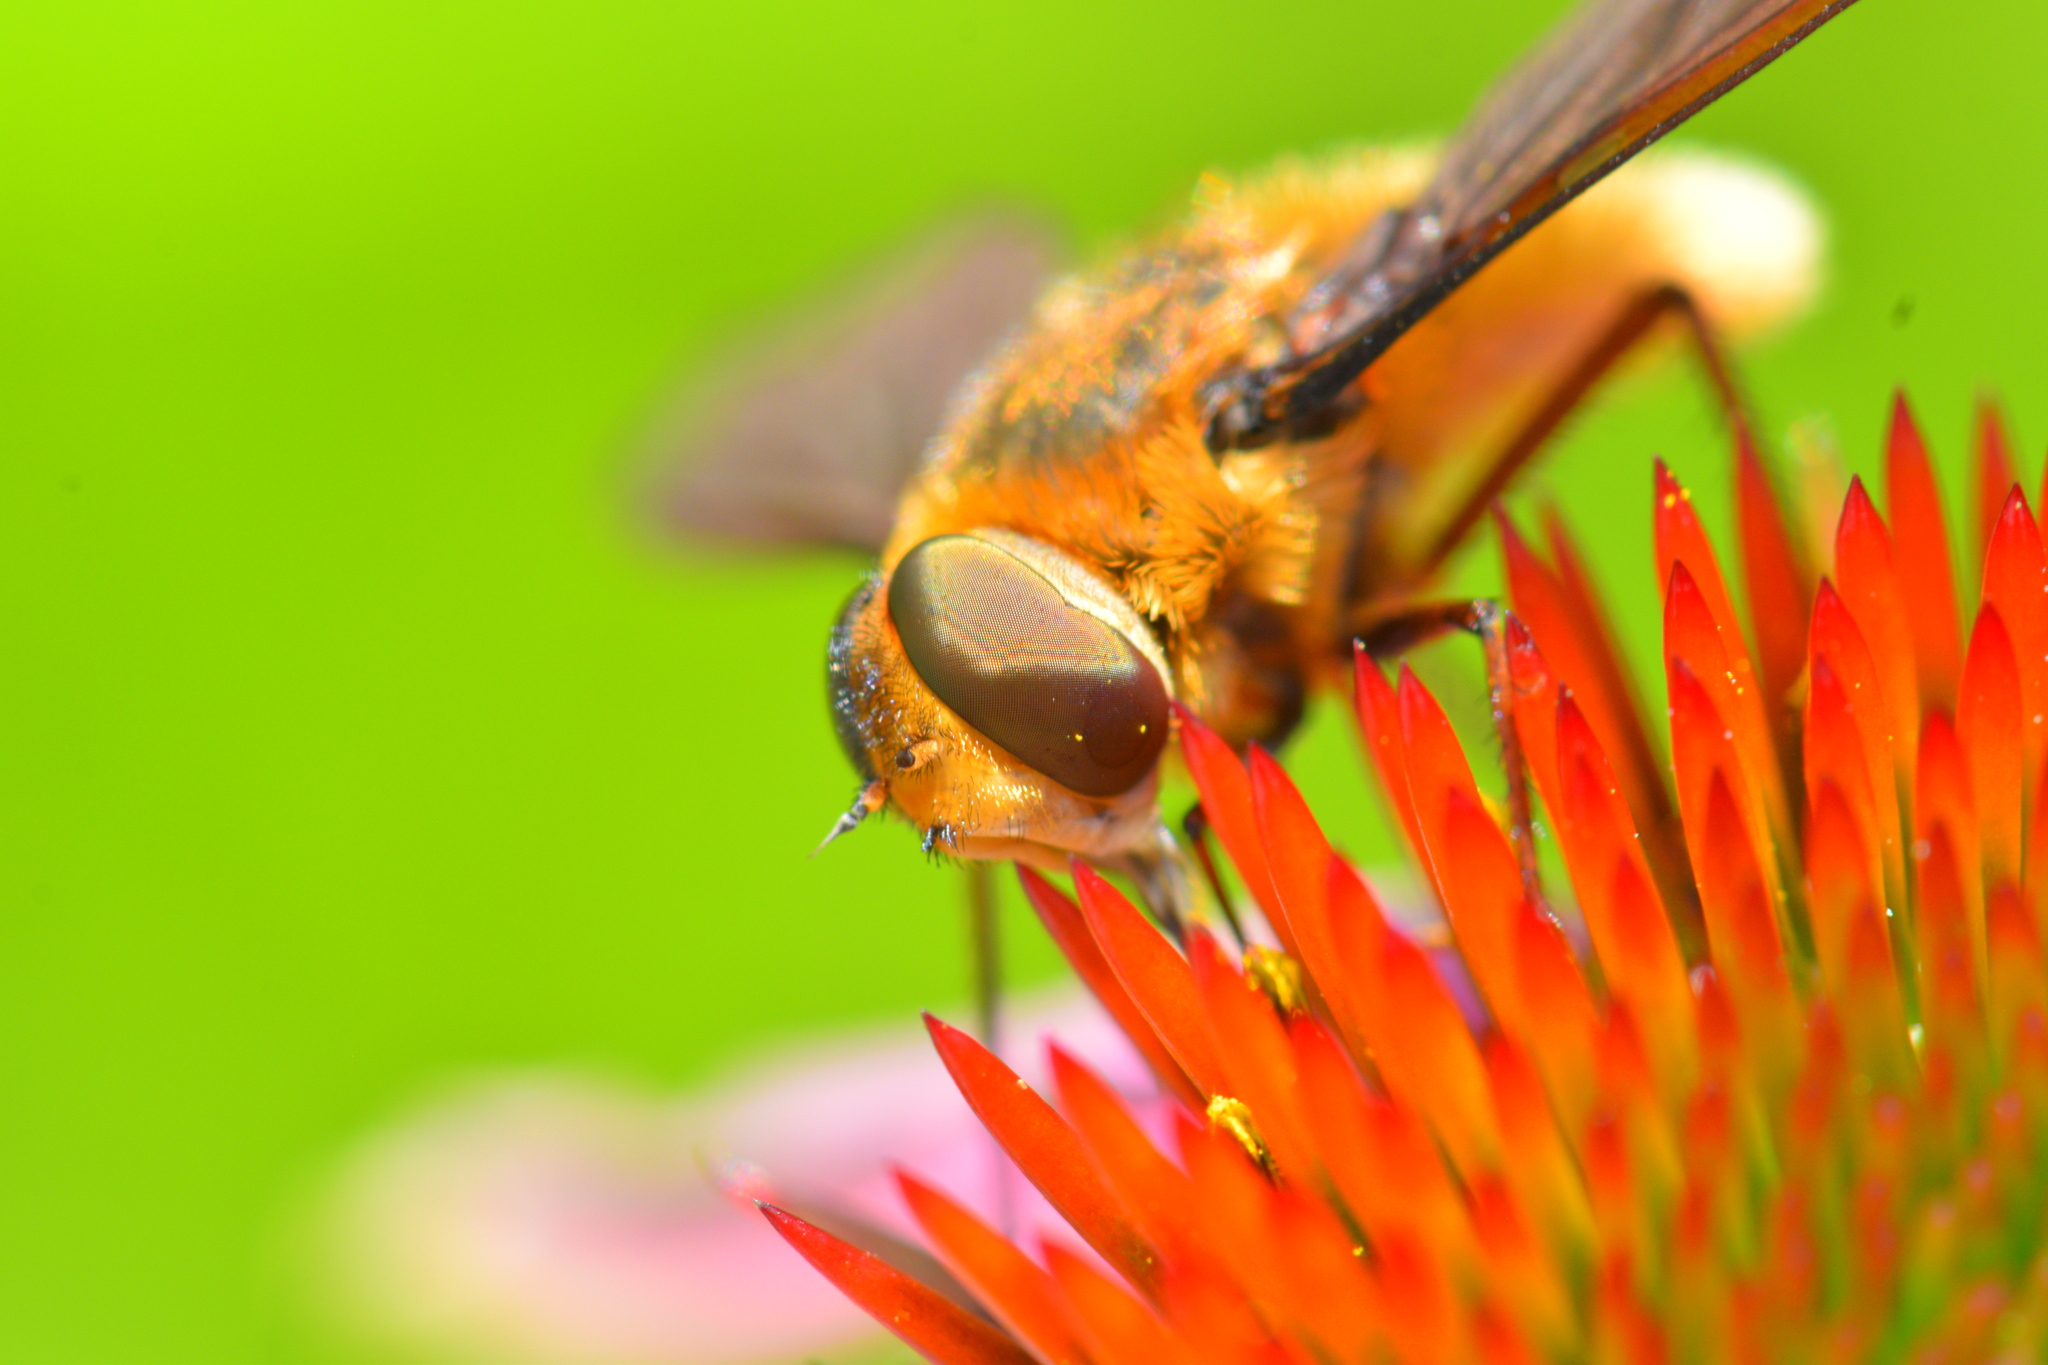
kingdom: Animalia
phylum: Arthropoda
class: Insecta
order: Diptera
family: Bombyliidae
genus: Poecilanthrax
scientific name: Poecilanthrax tegminipennis
